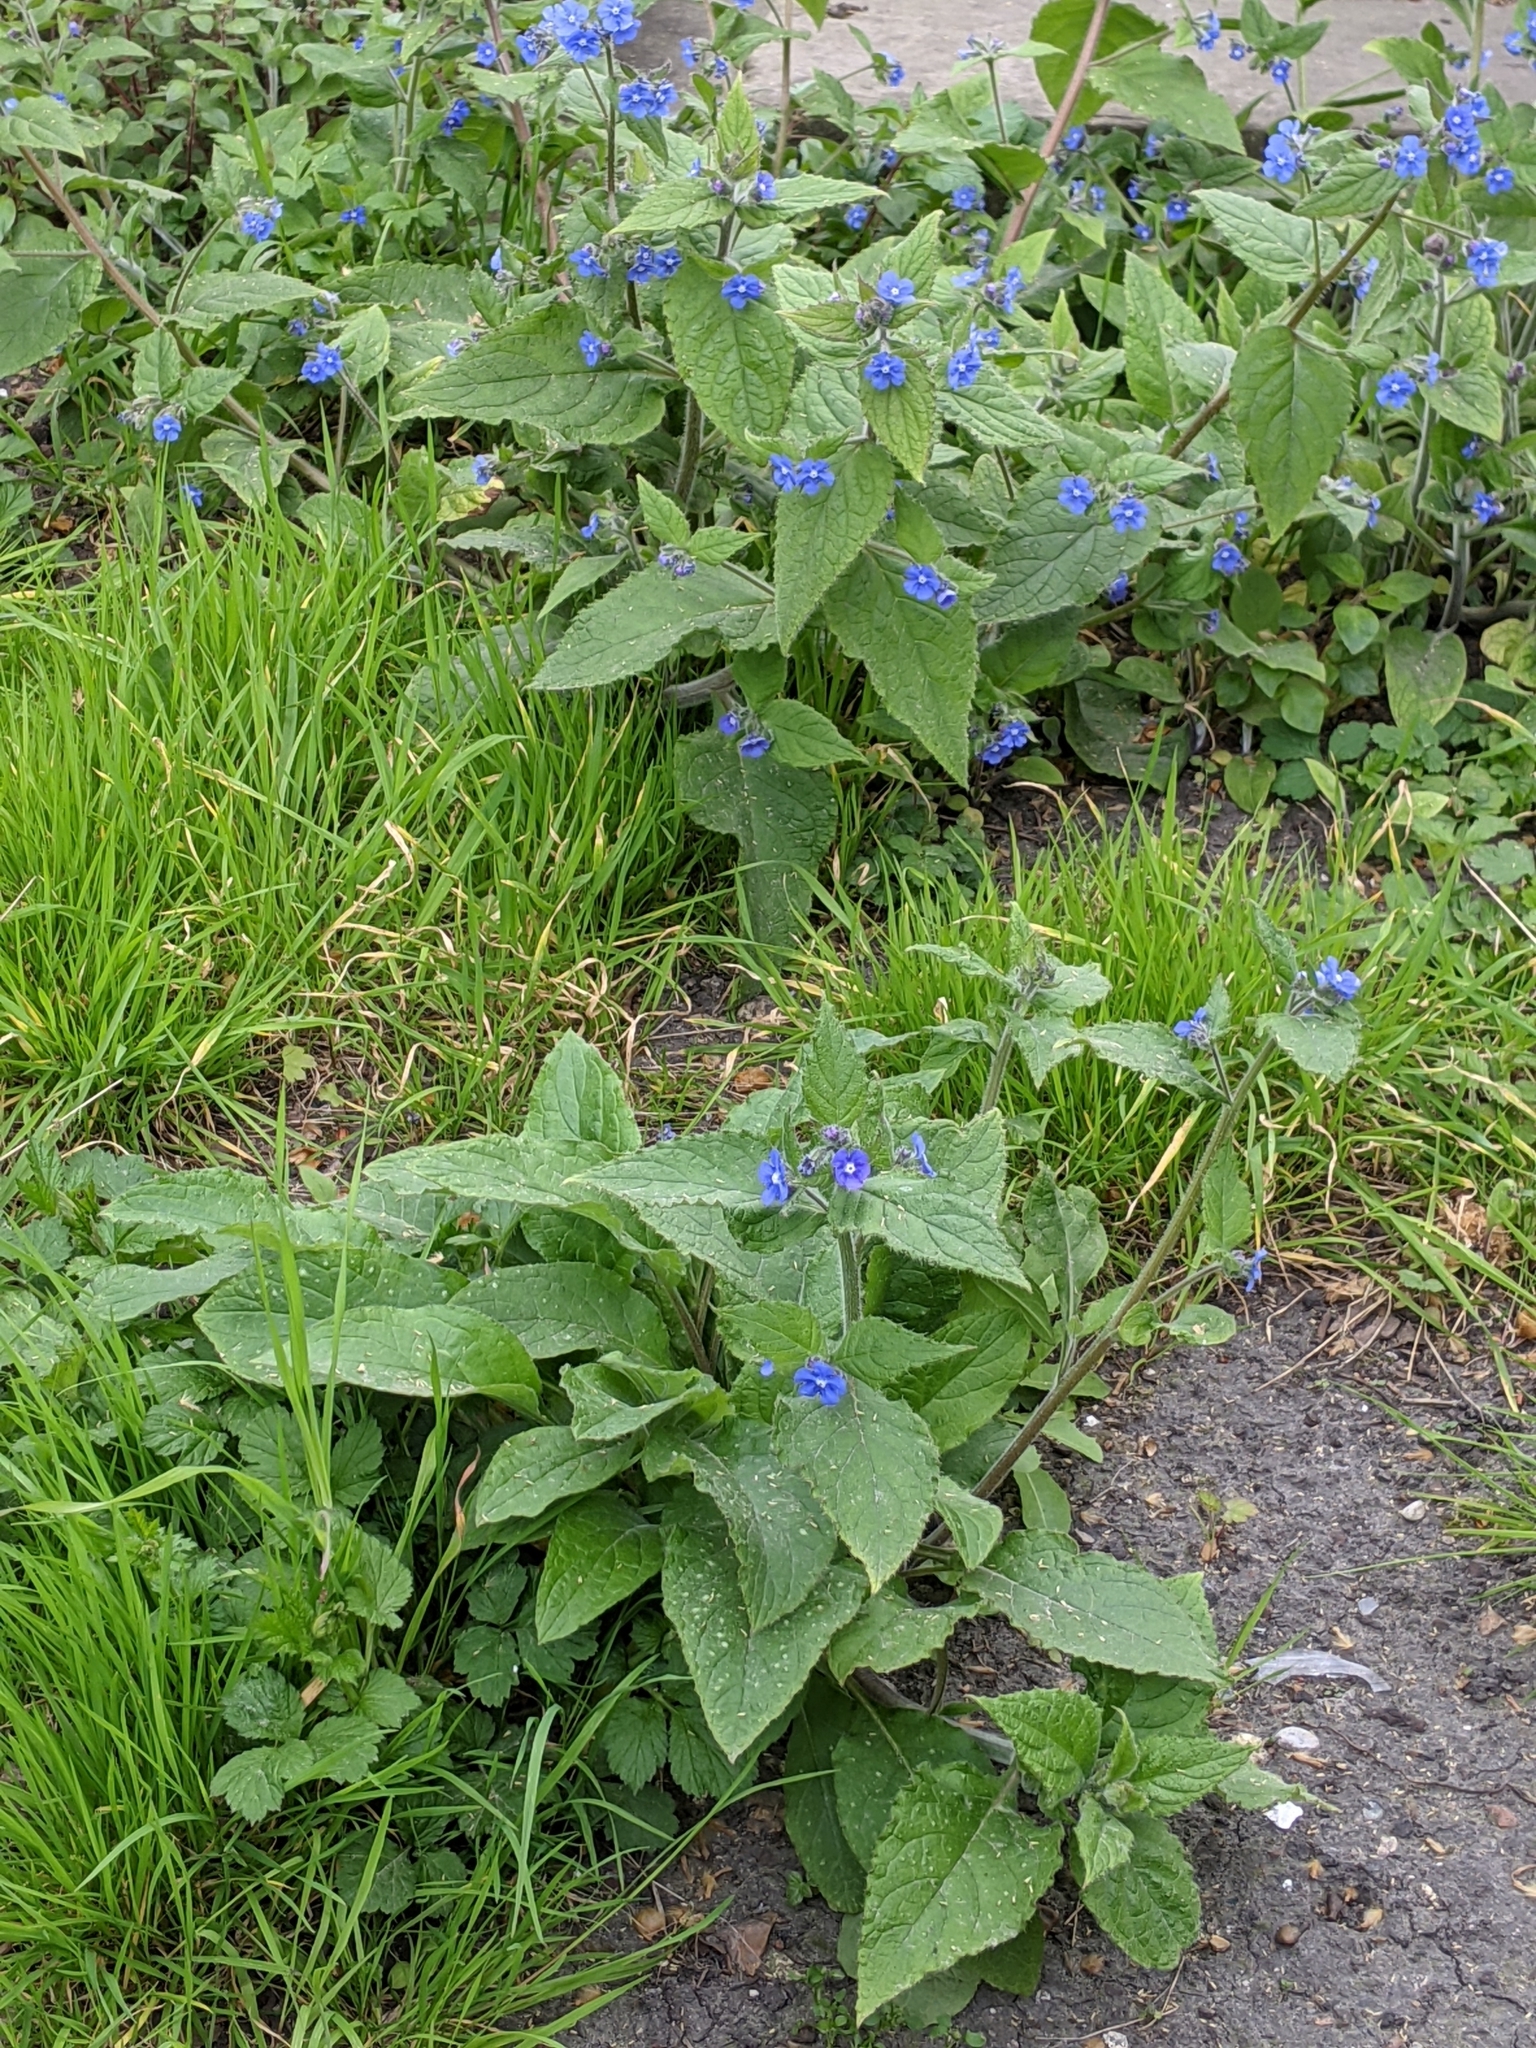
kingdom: Plantae
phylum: Tracheophyta
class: Magnoliopsida
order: Boraginales
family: Boraginaceae
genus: Pentaglottis
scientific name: Pentaglottis sempervirens
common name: Green alkanet
